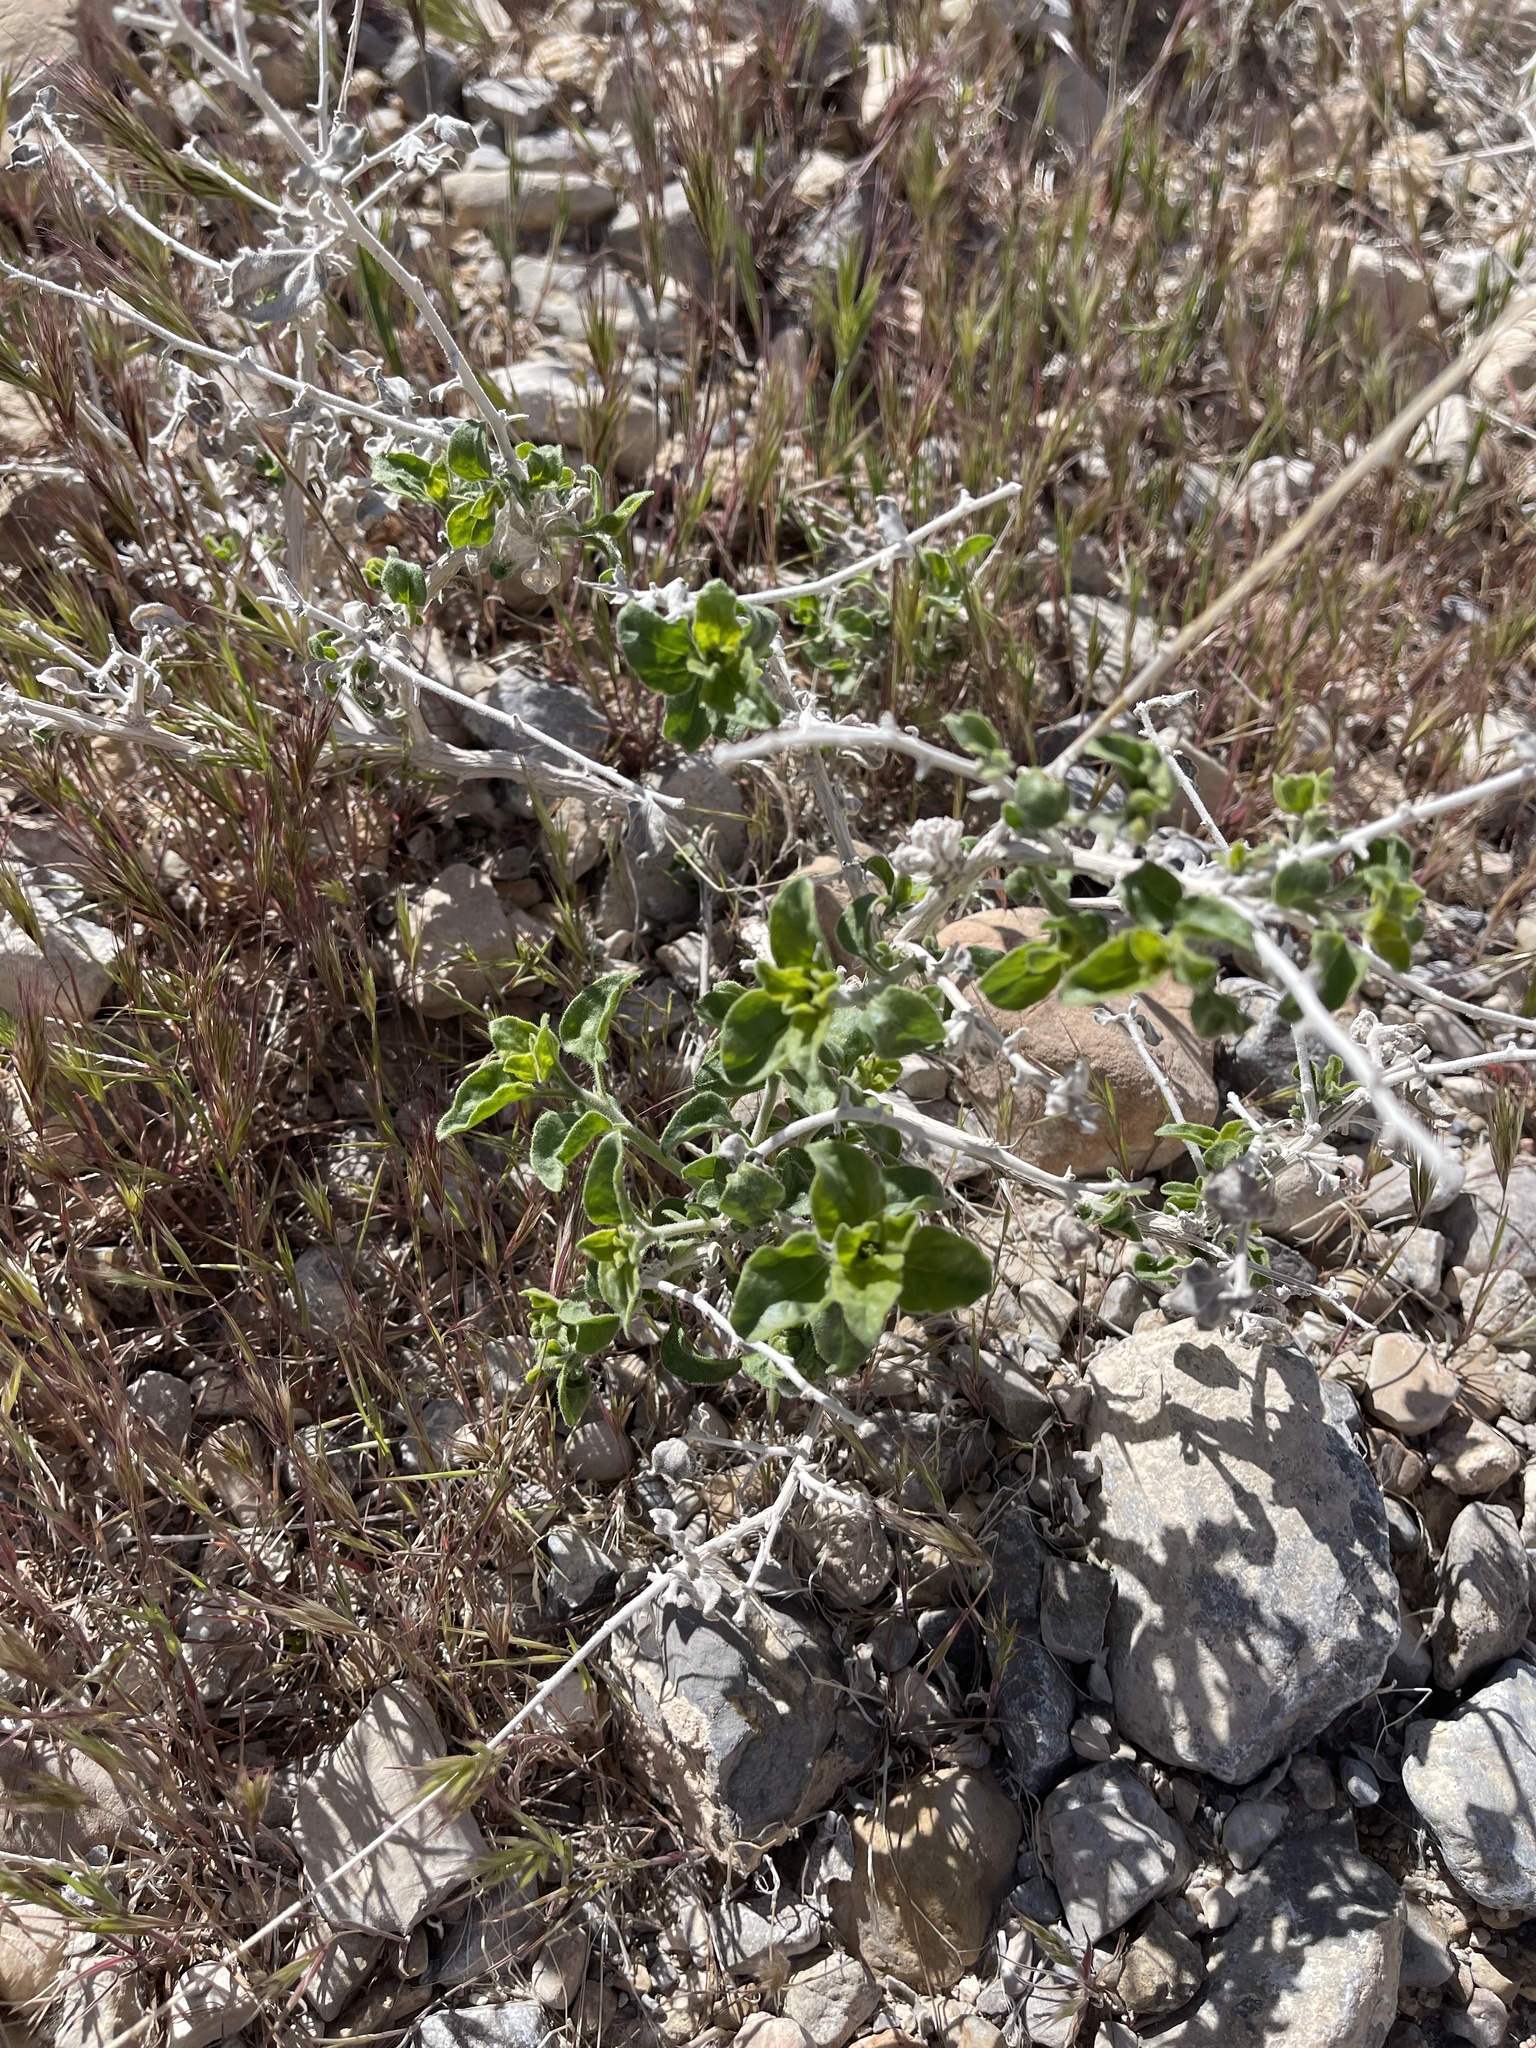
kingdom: Plantae
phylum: Tracheophyta
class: Magnoliopsida
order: Asterales
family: Asteraceae
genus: Encelia
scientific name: Encelia virginensis
